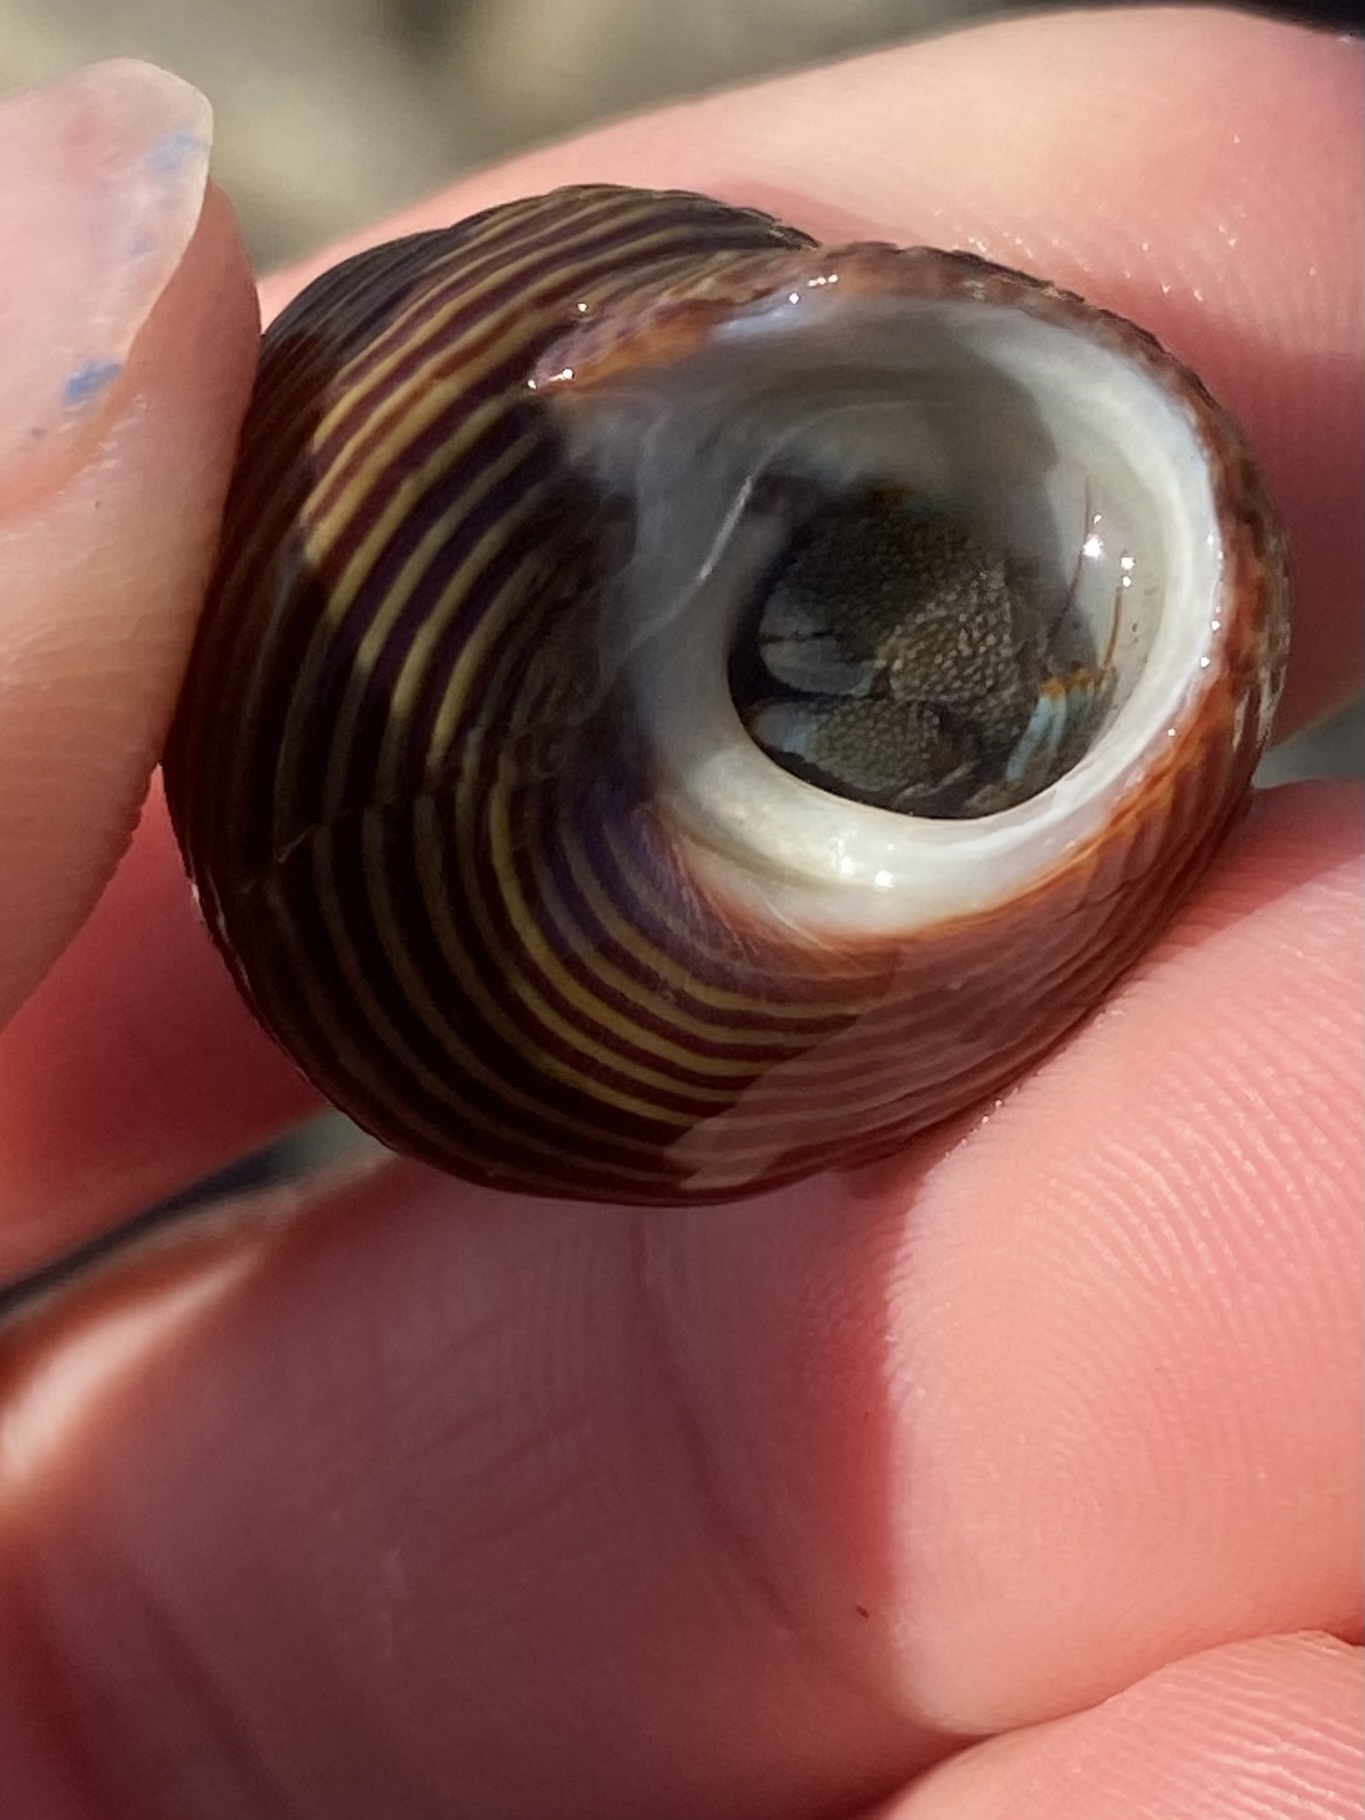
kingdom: Animalia
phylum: Arthropoda
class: Malacostraca
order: Decapoda
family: Paguridae
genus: Pagurus
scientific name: Pagurus samuelis
